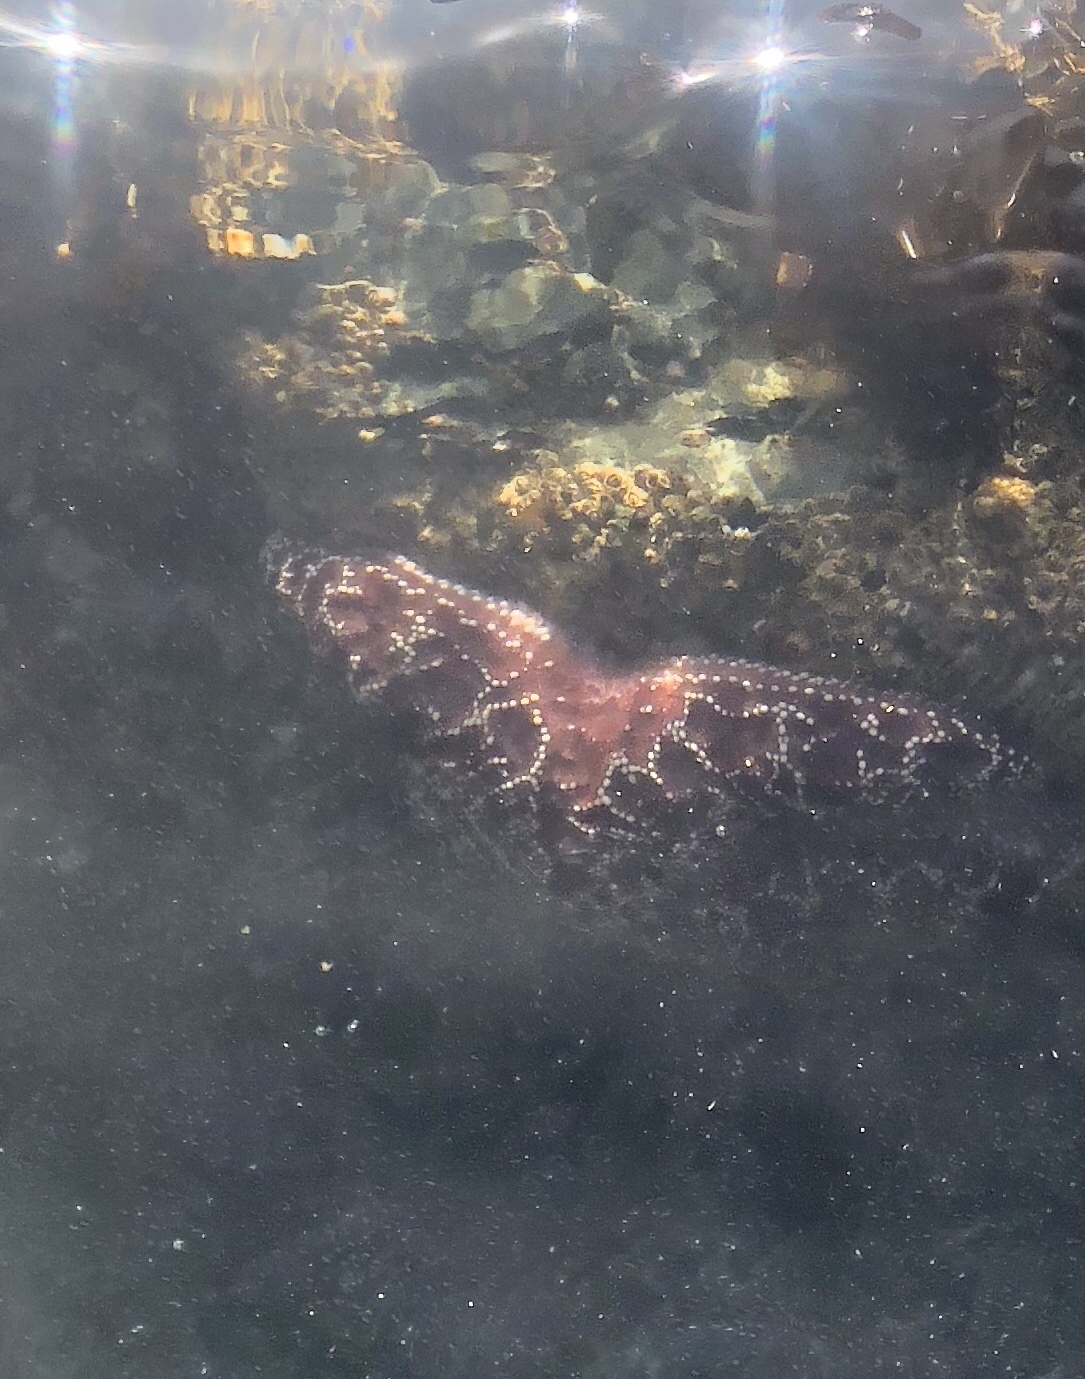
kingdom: Animalia
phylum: Echinodermata
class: Asteroidea
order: Forcipulatida
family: Asteriidae
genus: Pisaster
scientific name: Pisaster ochraceus
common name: Ochre stars
